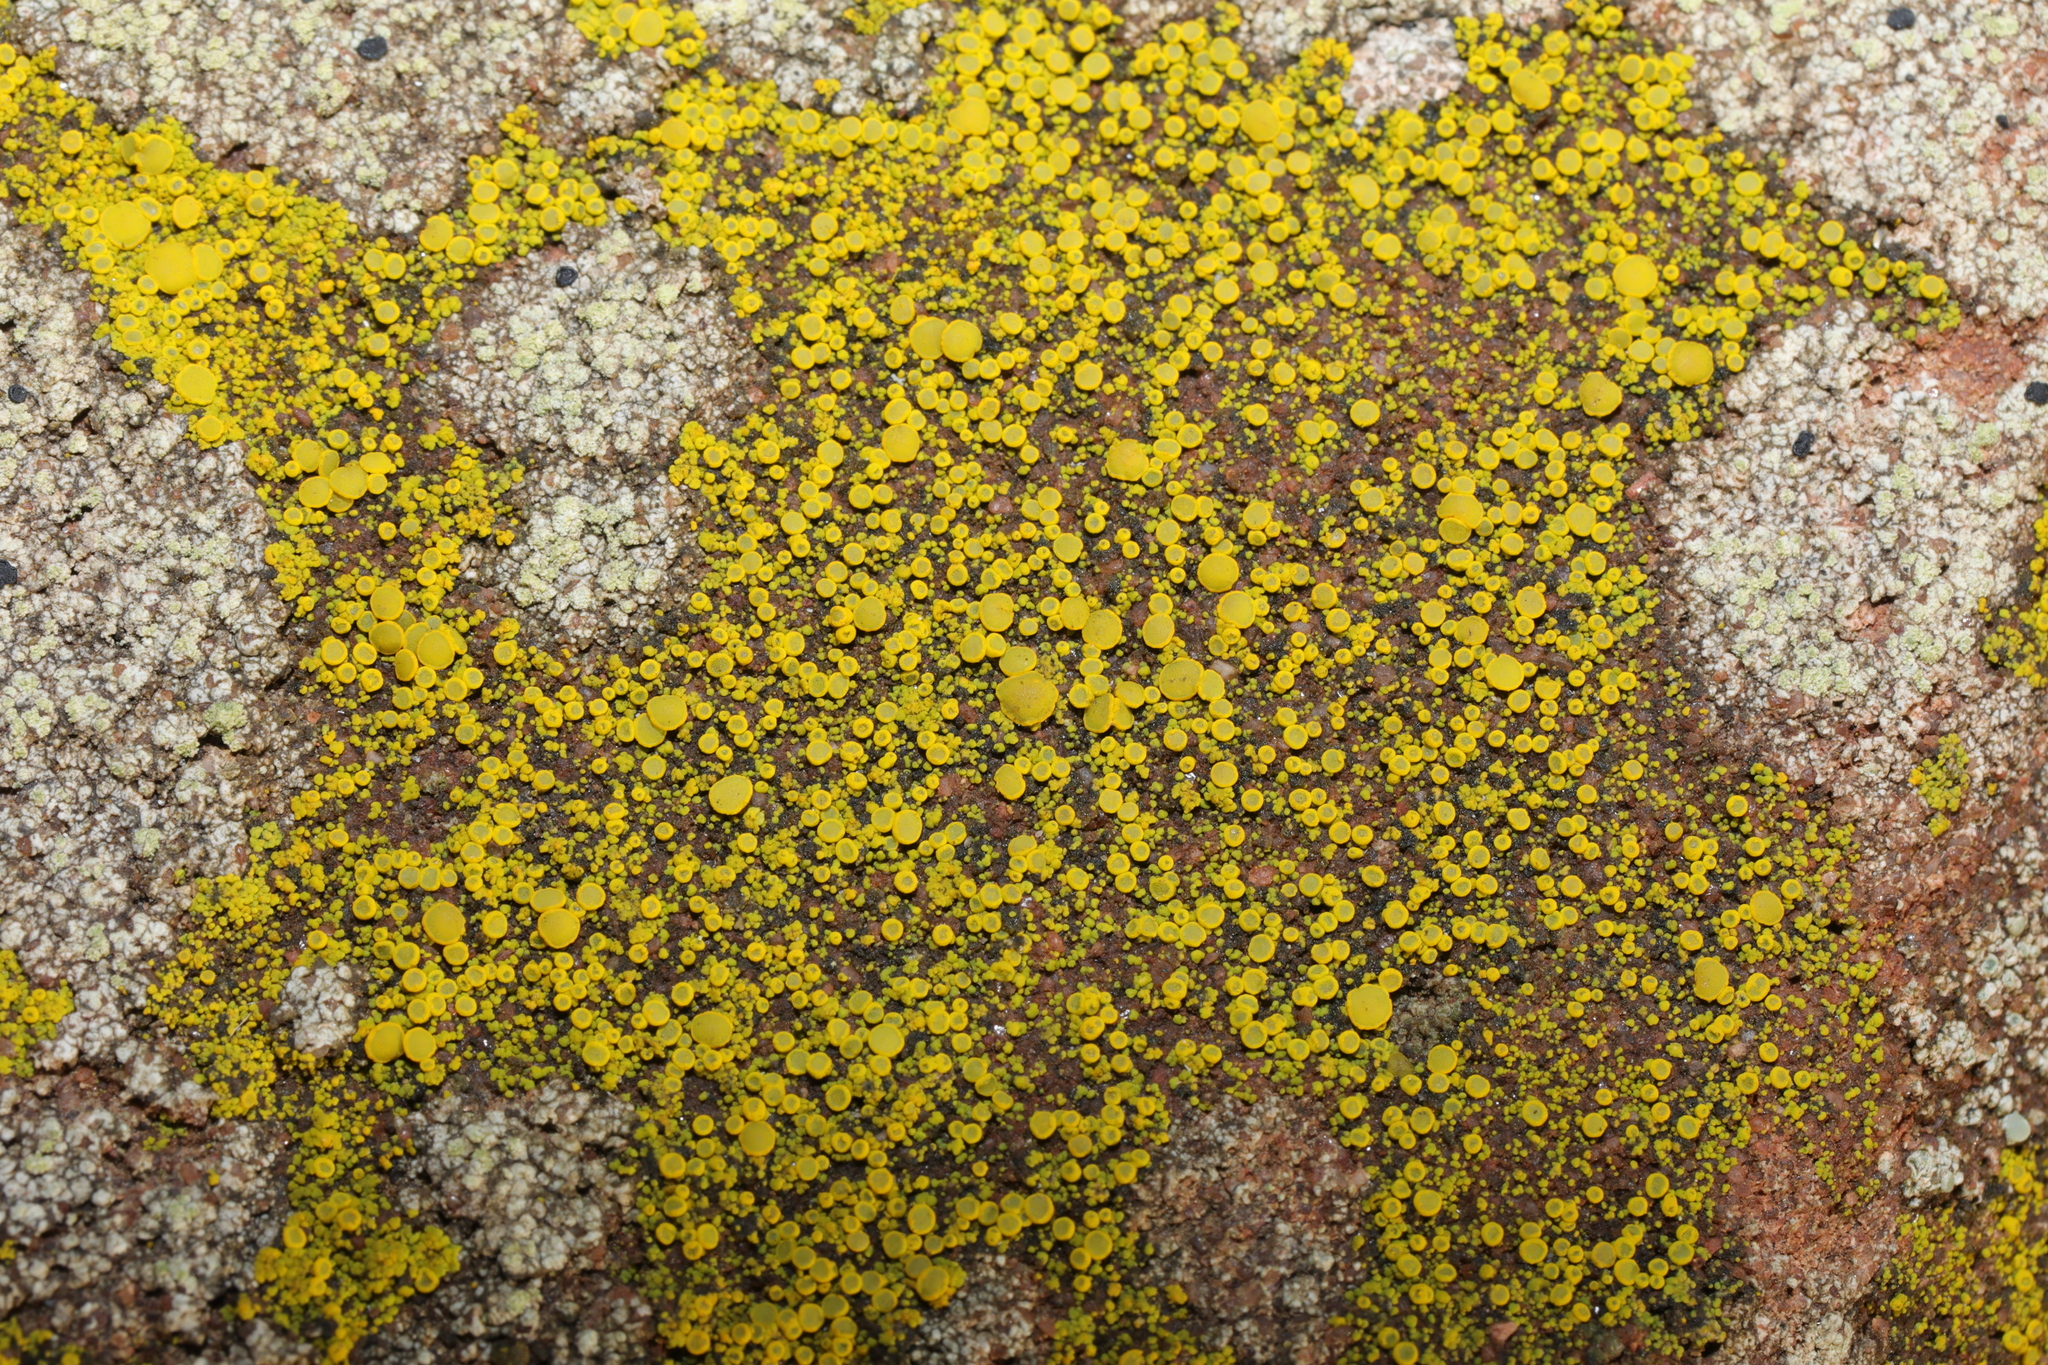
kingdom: Fungi
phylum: Ascomycota
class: Candelariomycetes
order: Candelariales
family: Candelariaceae
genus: Candelariella
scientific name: Candelariella vitellina
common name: Common goldspeck
